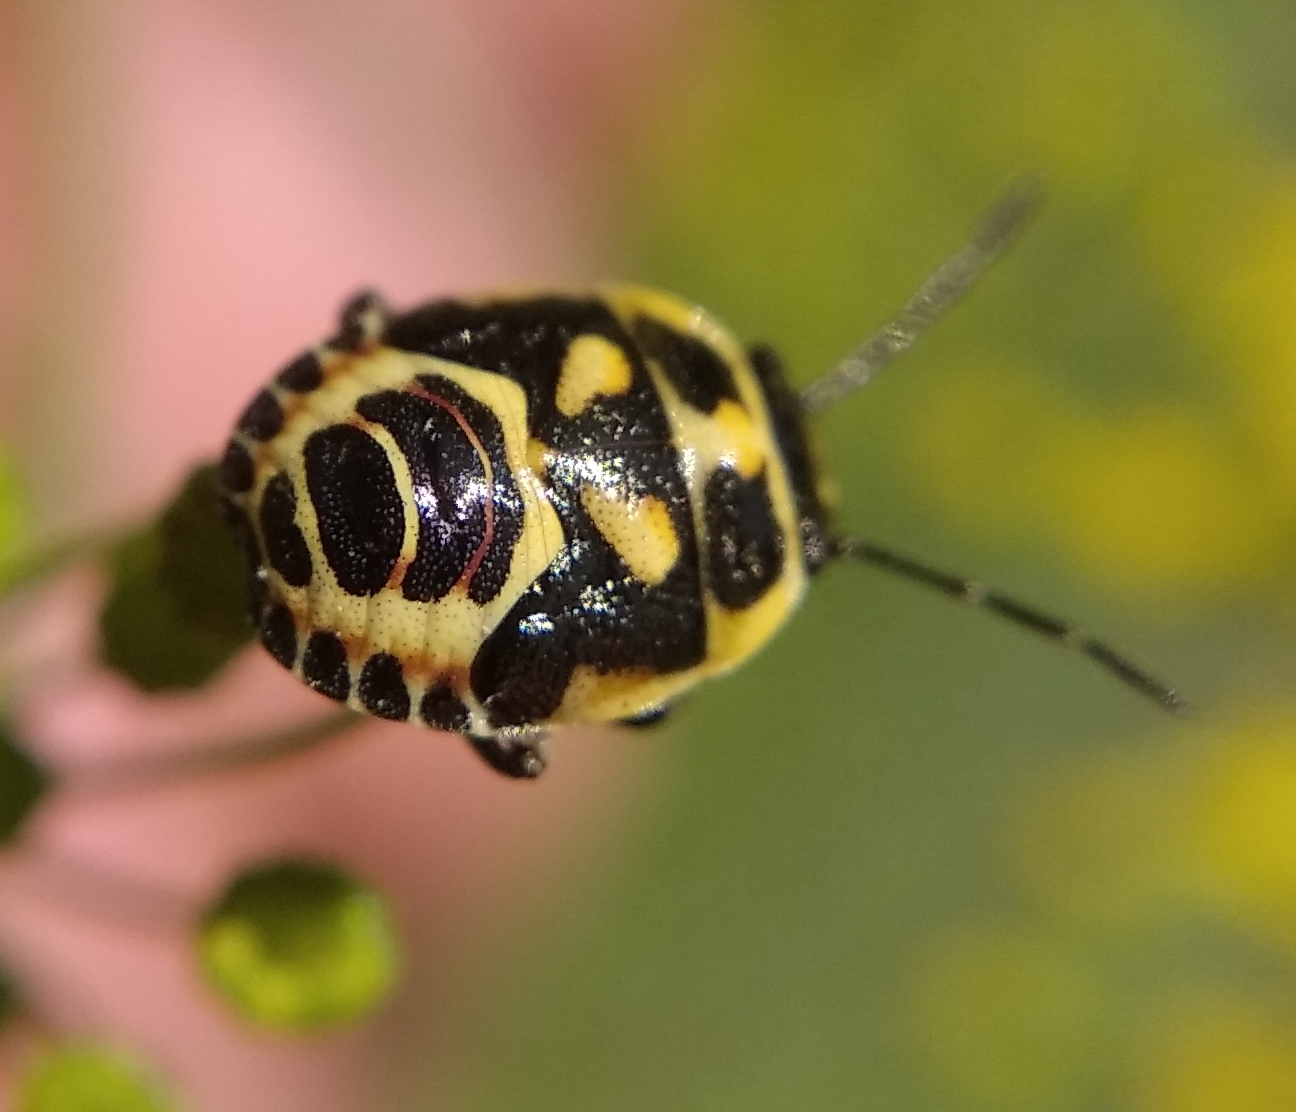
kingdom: Animalia
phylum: Arthropoda
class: Insecta
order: Hemiptera
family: Pentatomidae
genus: Eurydema
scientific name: Eurydema oleracea
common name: Cabbage bug
